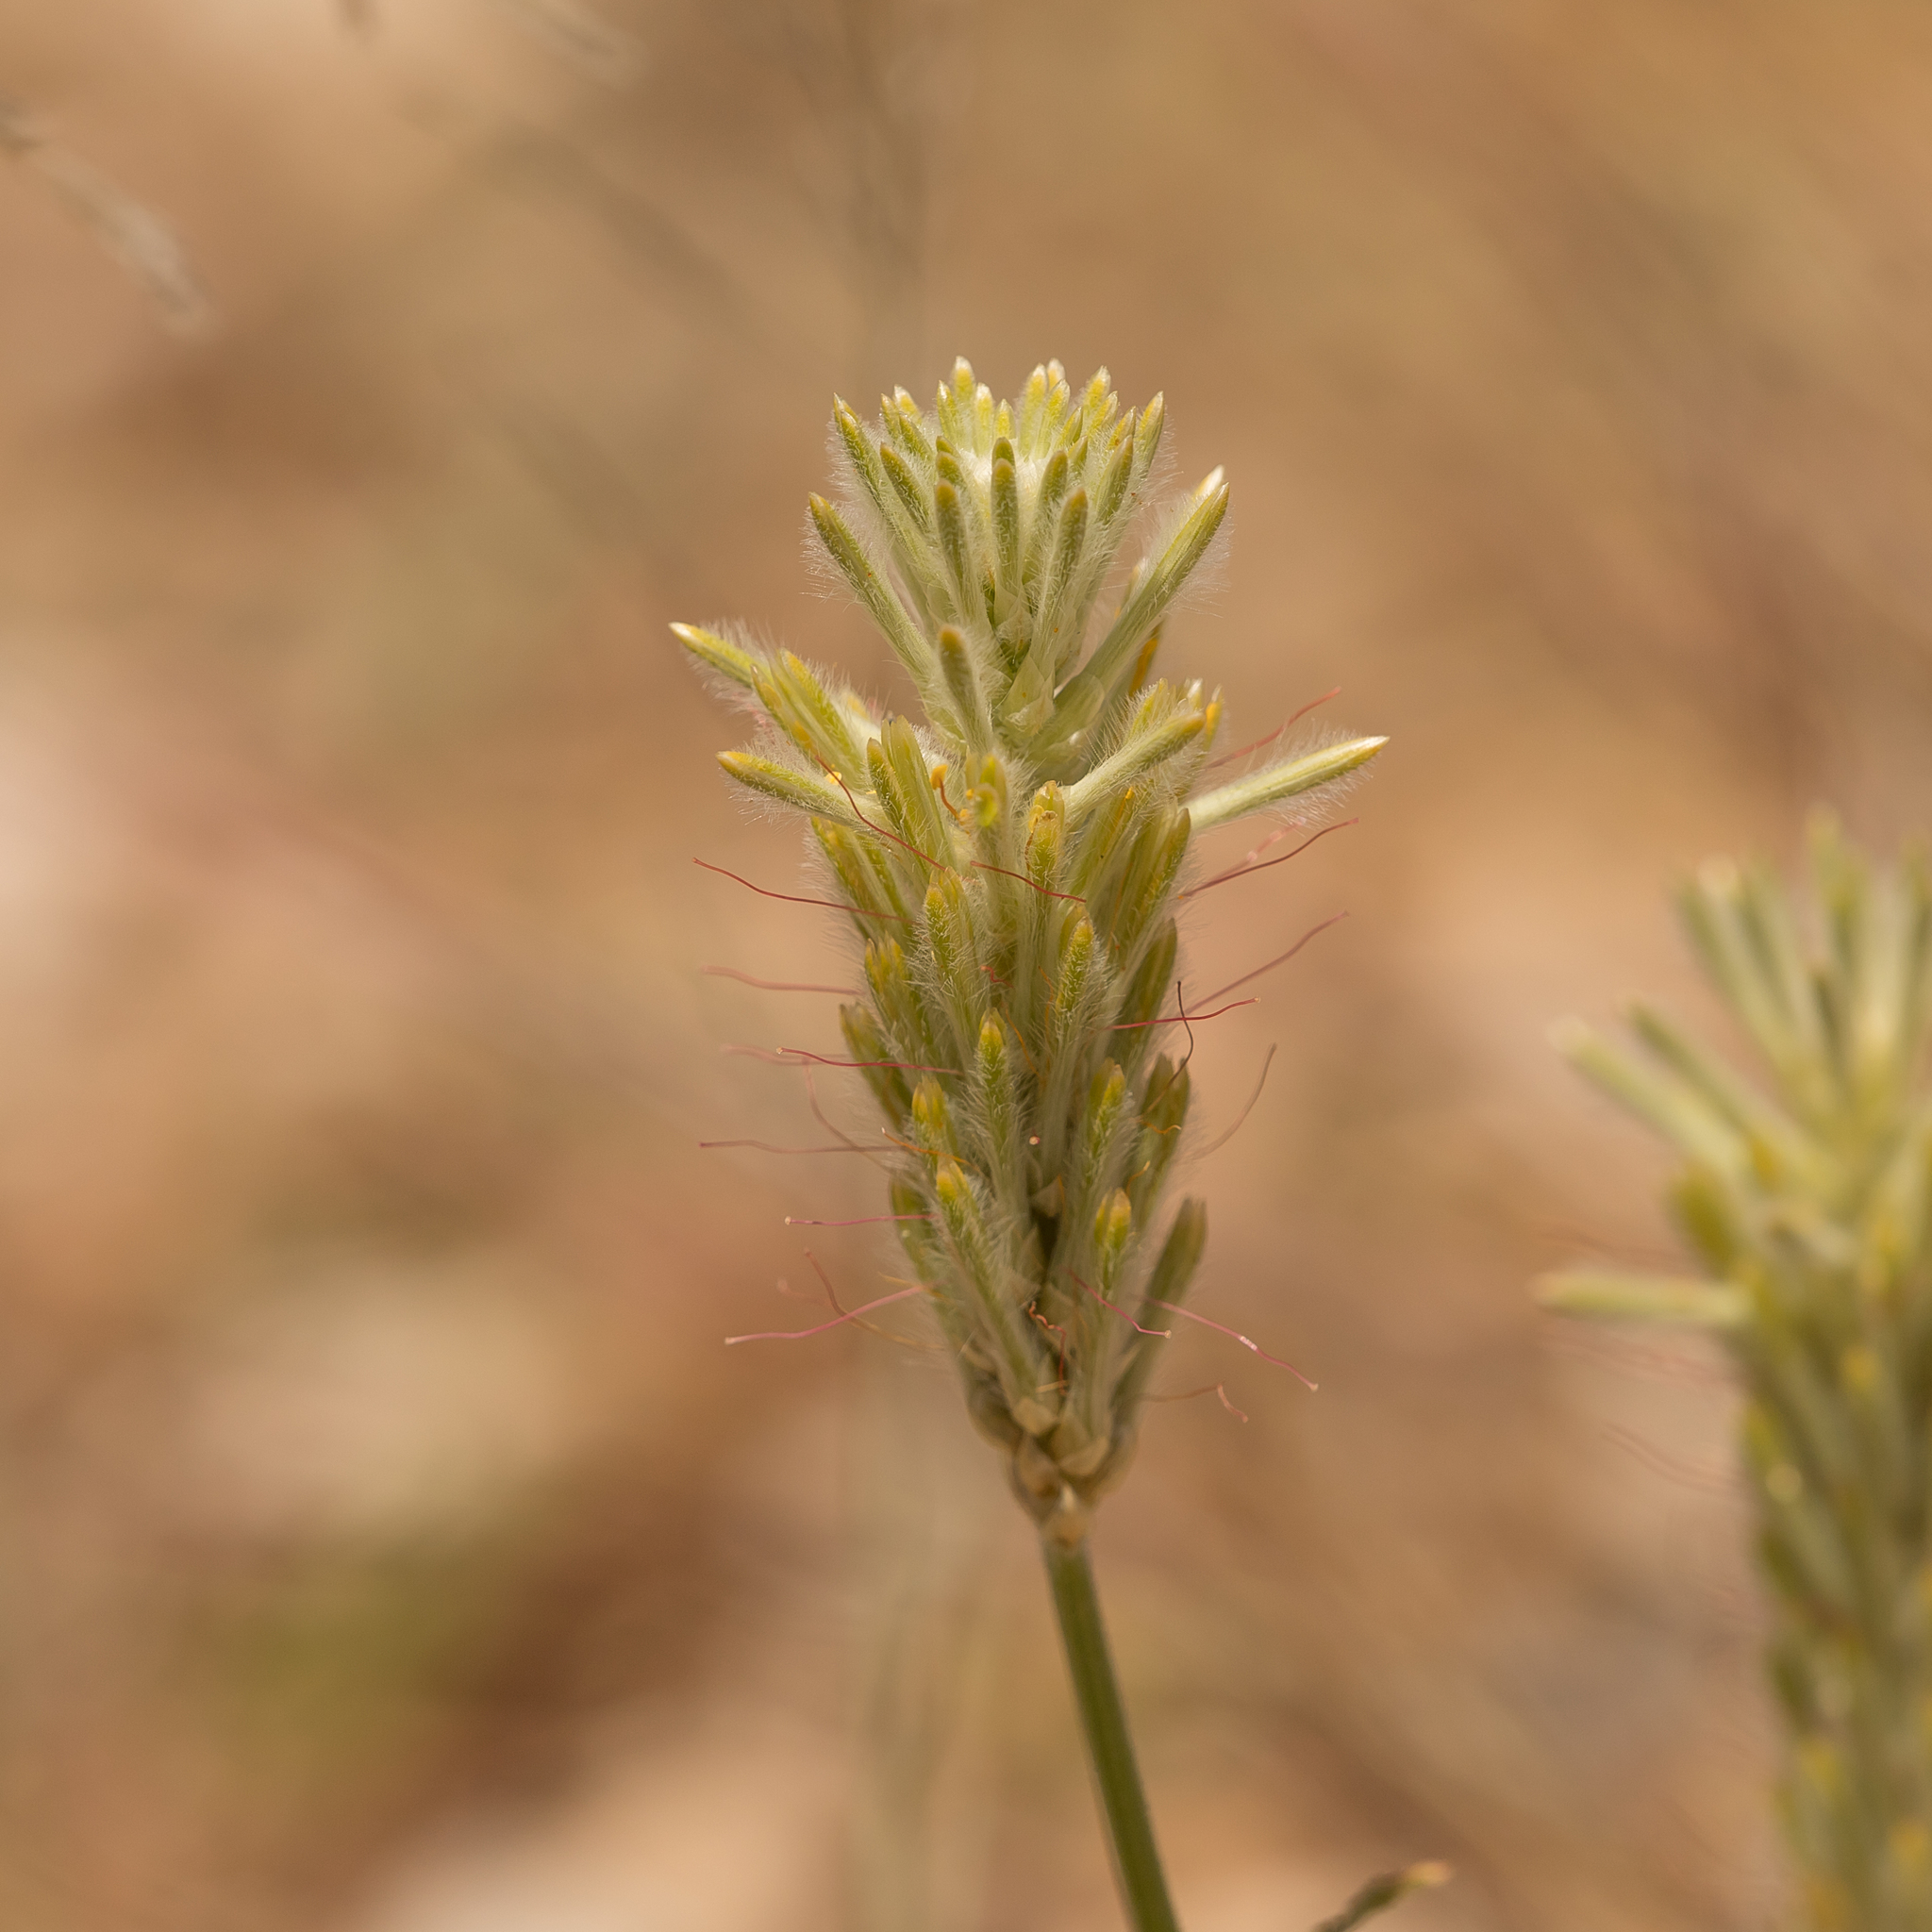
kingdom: Plantae
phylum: Tracheophyta
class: Magnoliopsida
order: Caryophyllales
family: Amaranthaceae
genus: Ptilotus
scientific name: Ptilotus polystachyus
